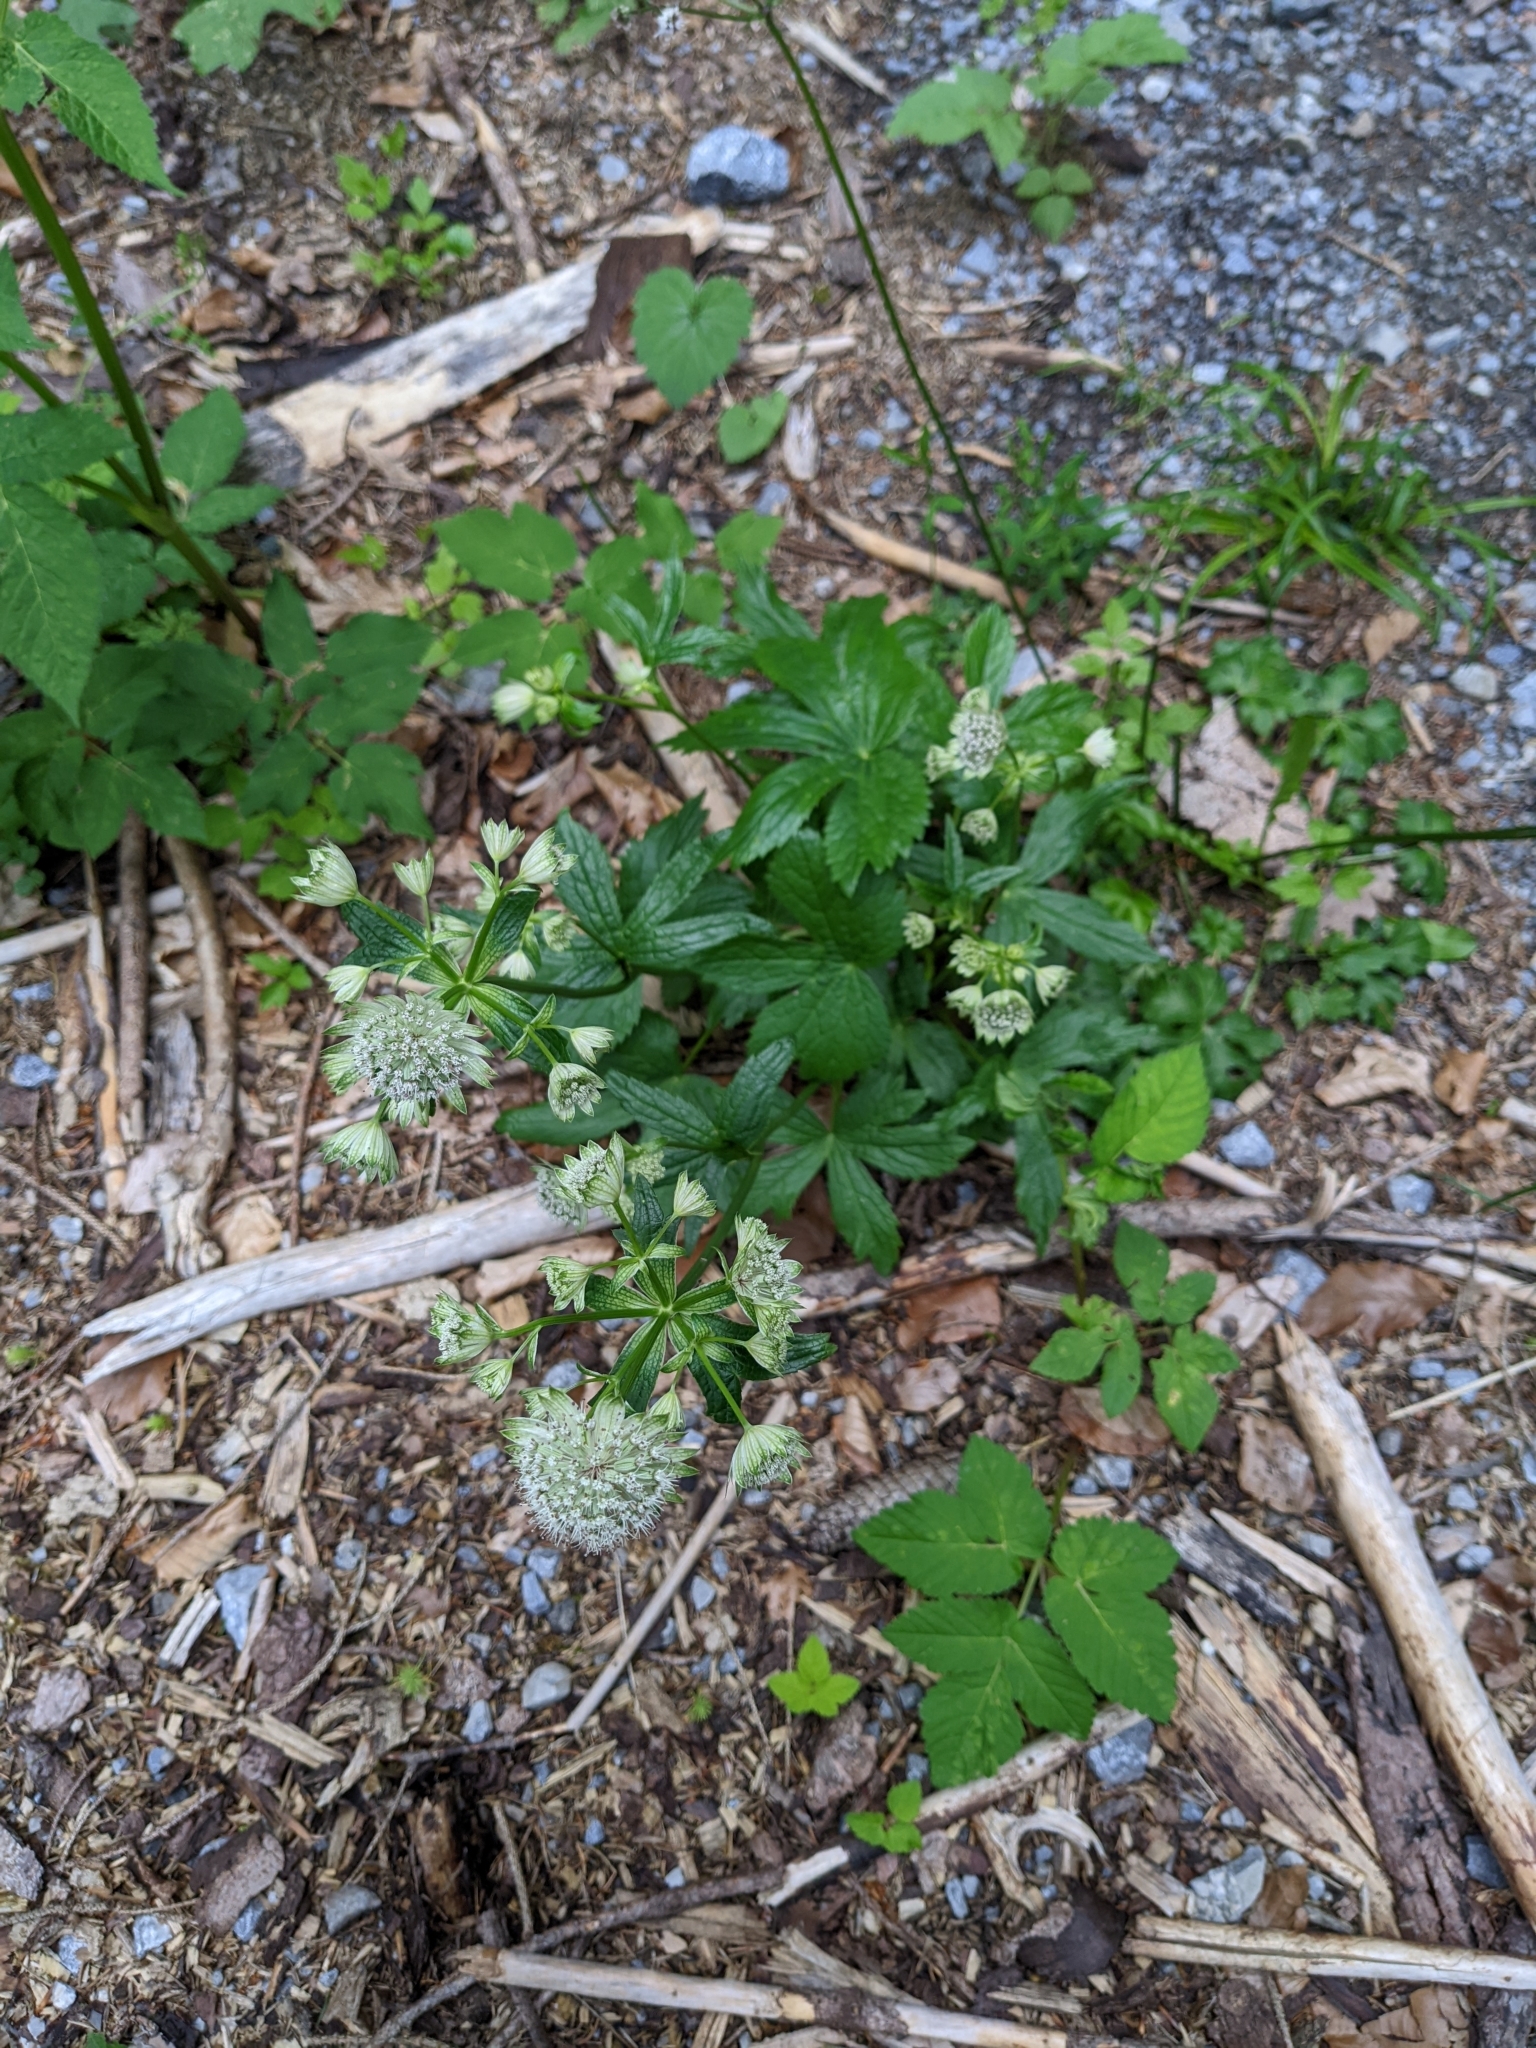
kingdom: Plantae
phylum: Tracheophyta
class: Magnoliopsida
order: Apiales
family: Apiaceae
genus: Astrantia
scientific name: Astrantia major
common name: Greater masterwort
